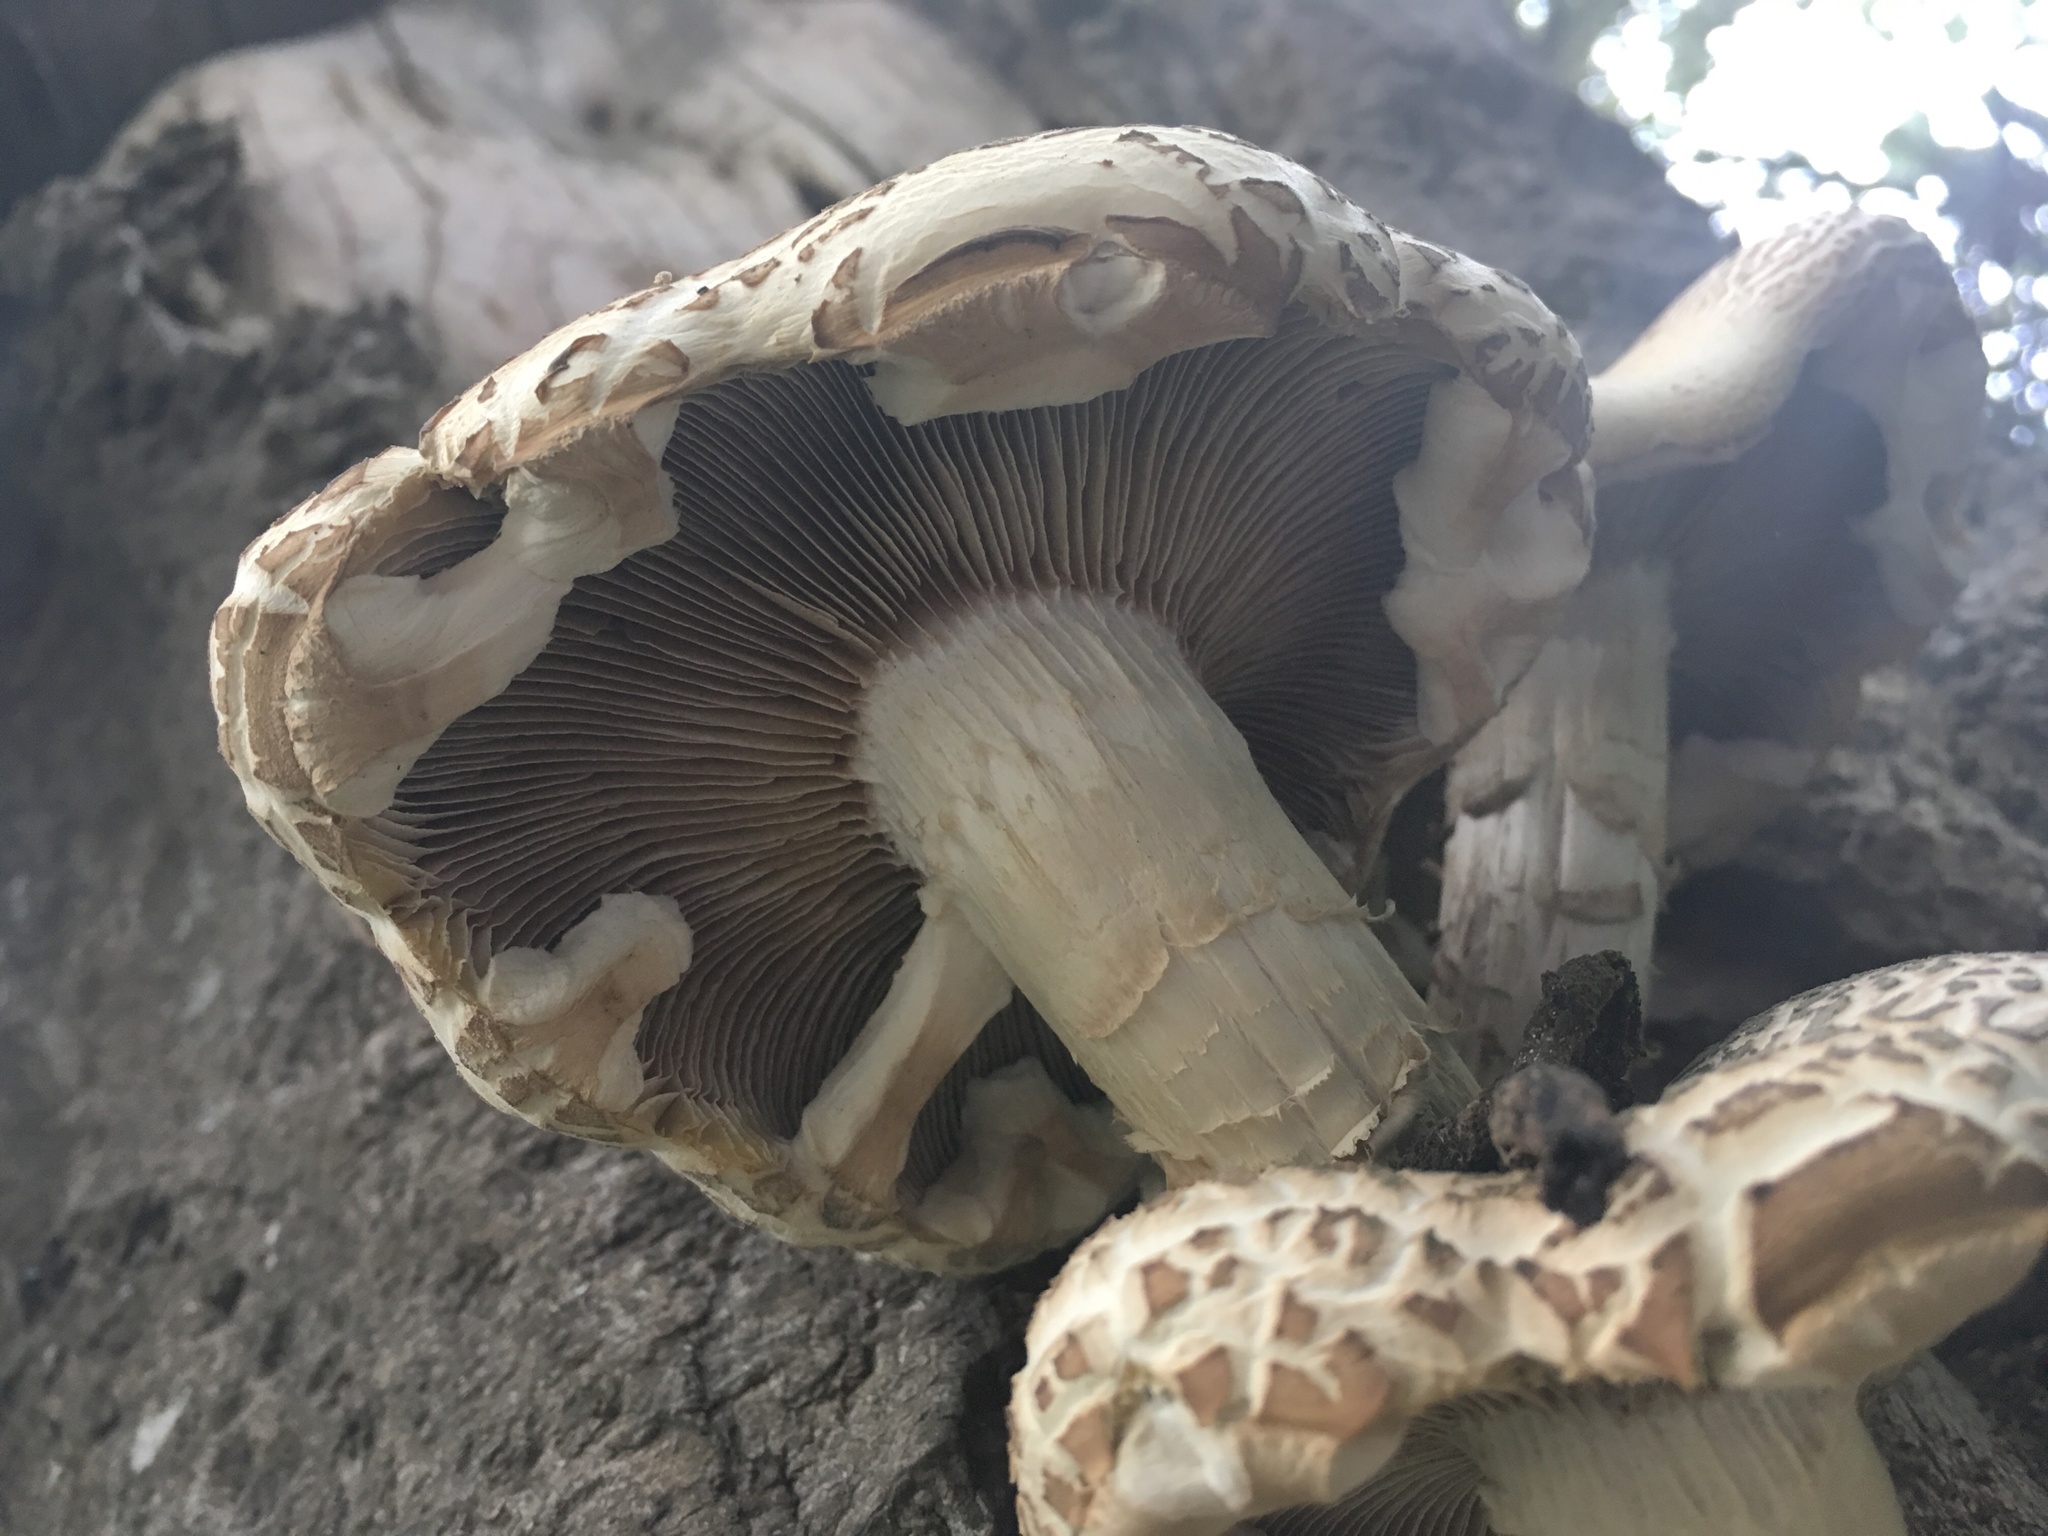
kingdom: Fungi
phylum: Basidiomycota
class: Agaricomycetes
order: Agaricales
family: Tubariaceae
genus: Cyclocybe
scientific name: Cyclocybe parasitica
